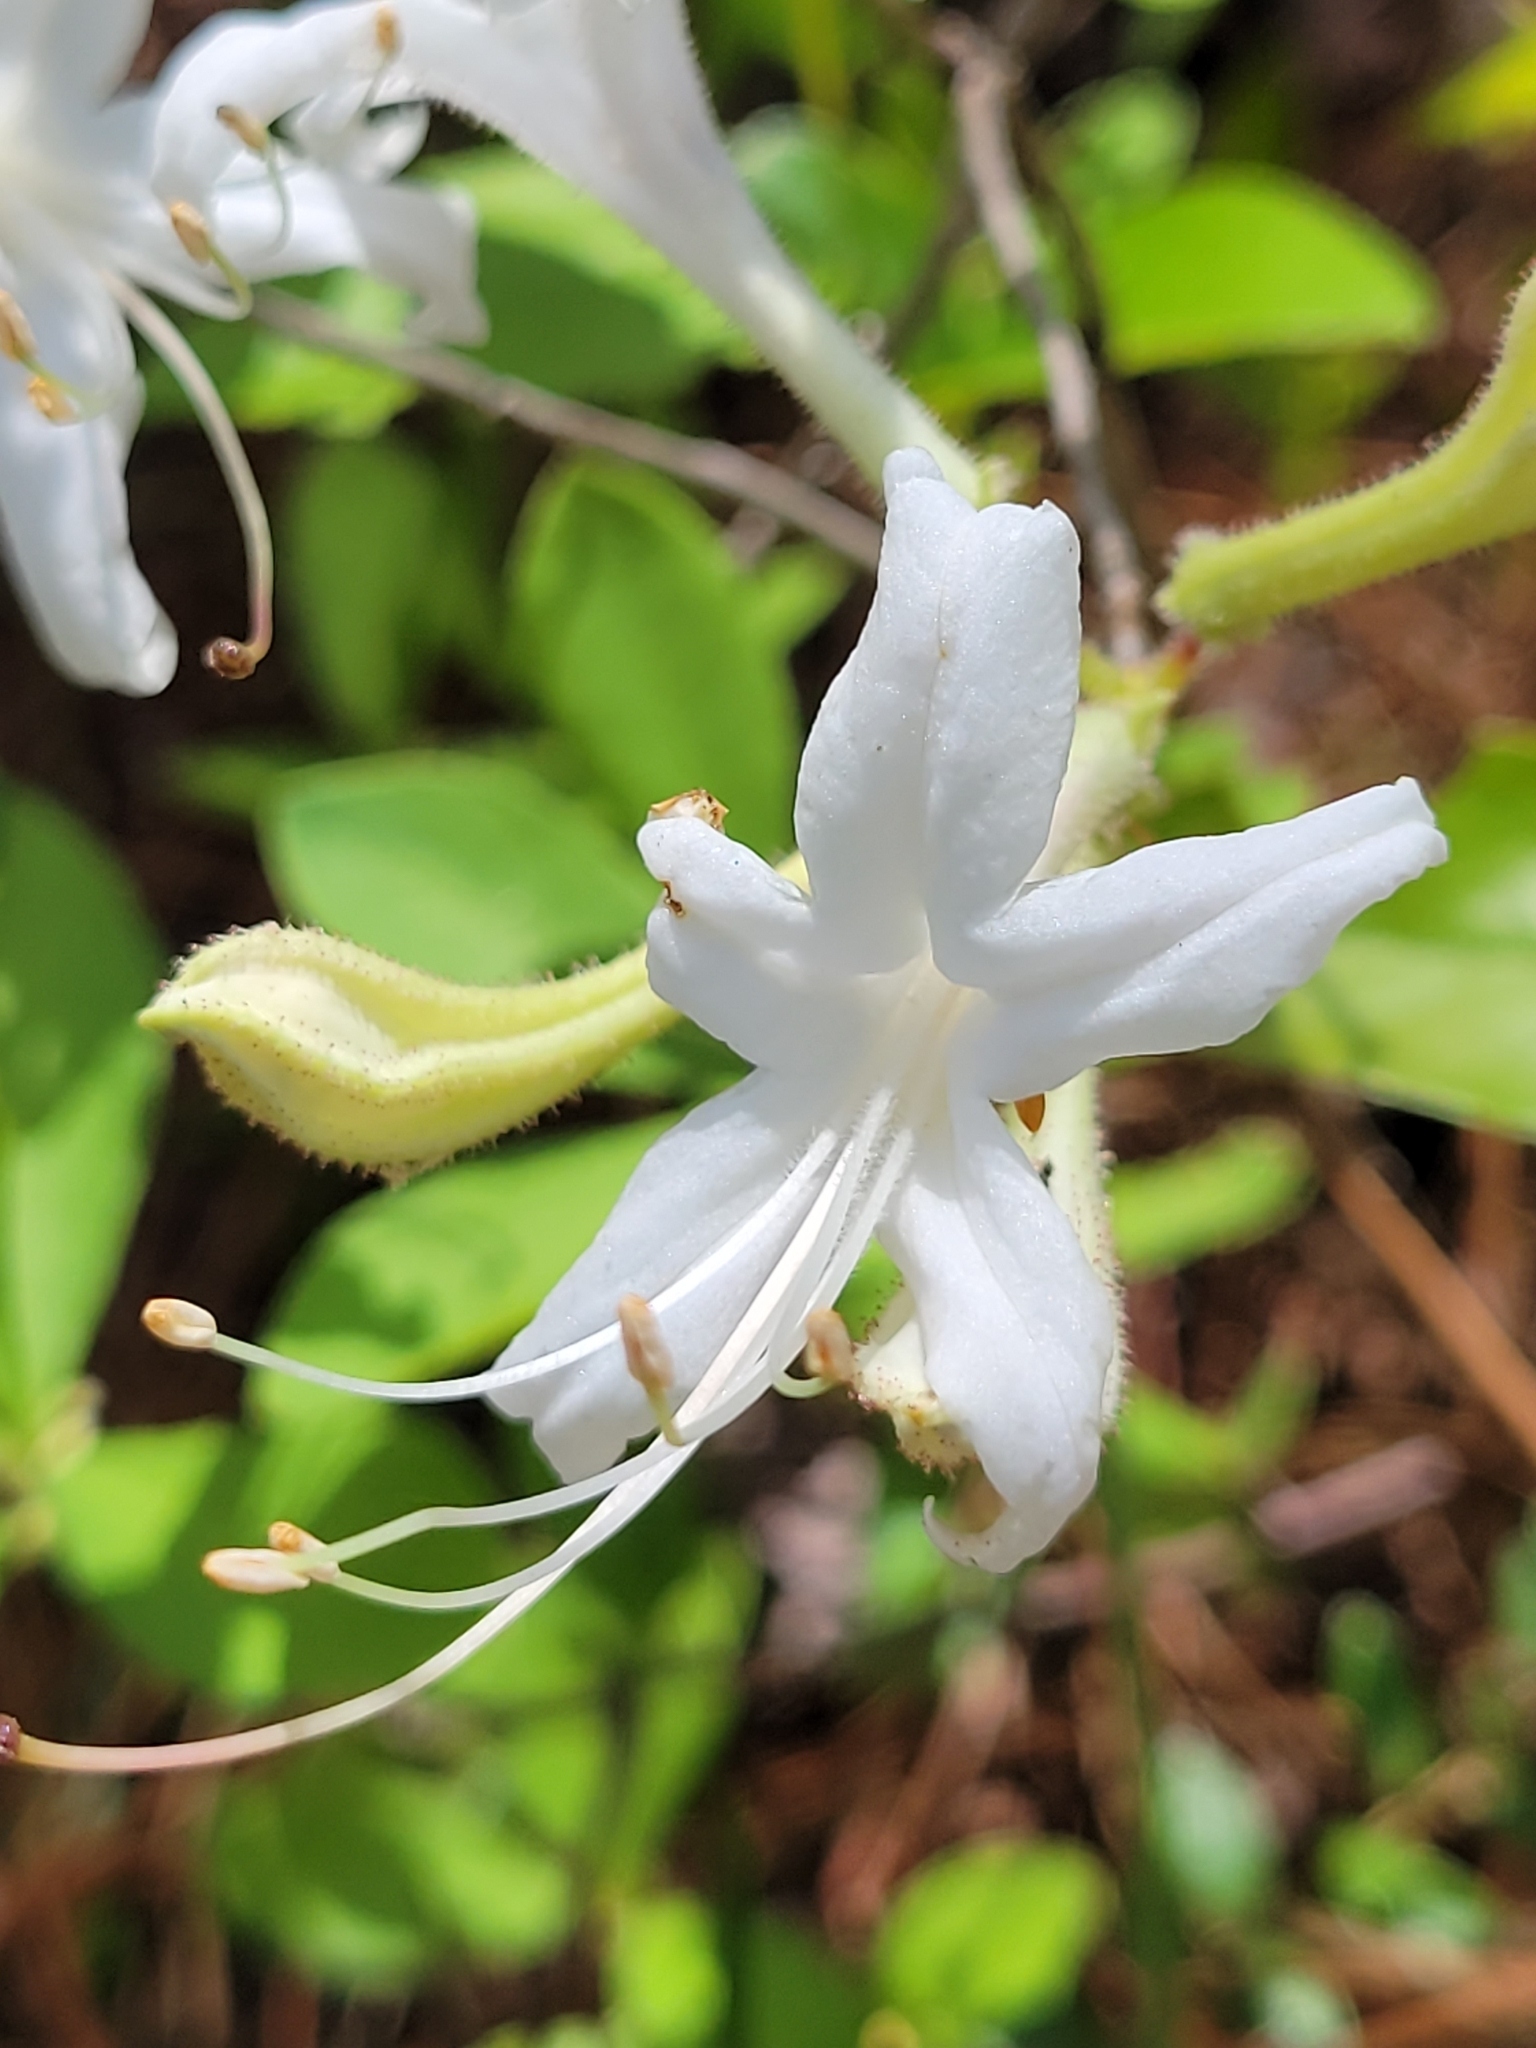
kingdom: Plantae
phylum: Tracheophyta
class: Magnoliopsida
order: Ericales
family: Ericaceae
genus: Rhododendron
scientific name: Rhododendron viscosum
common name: Clammy azalea
